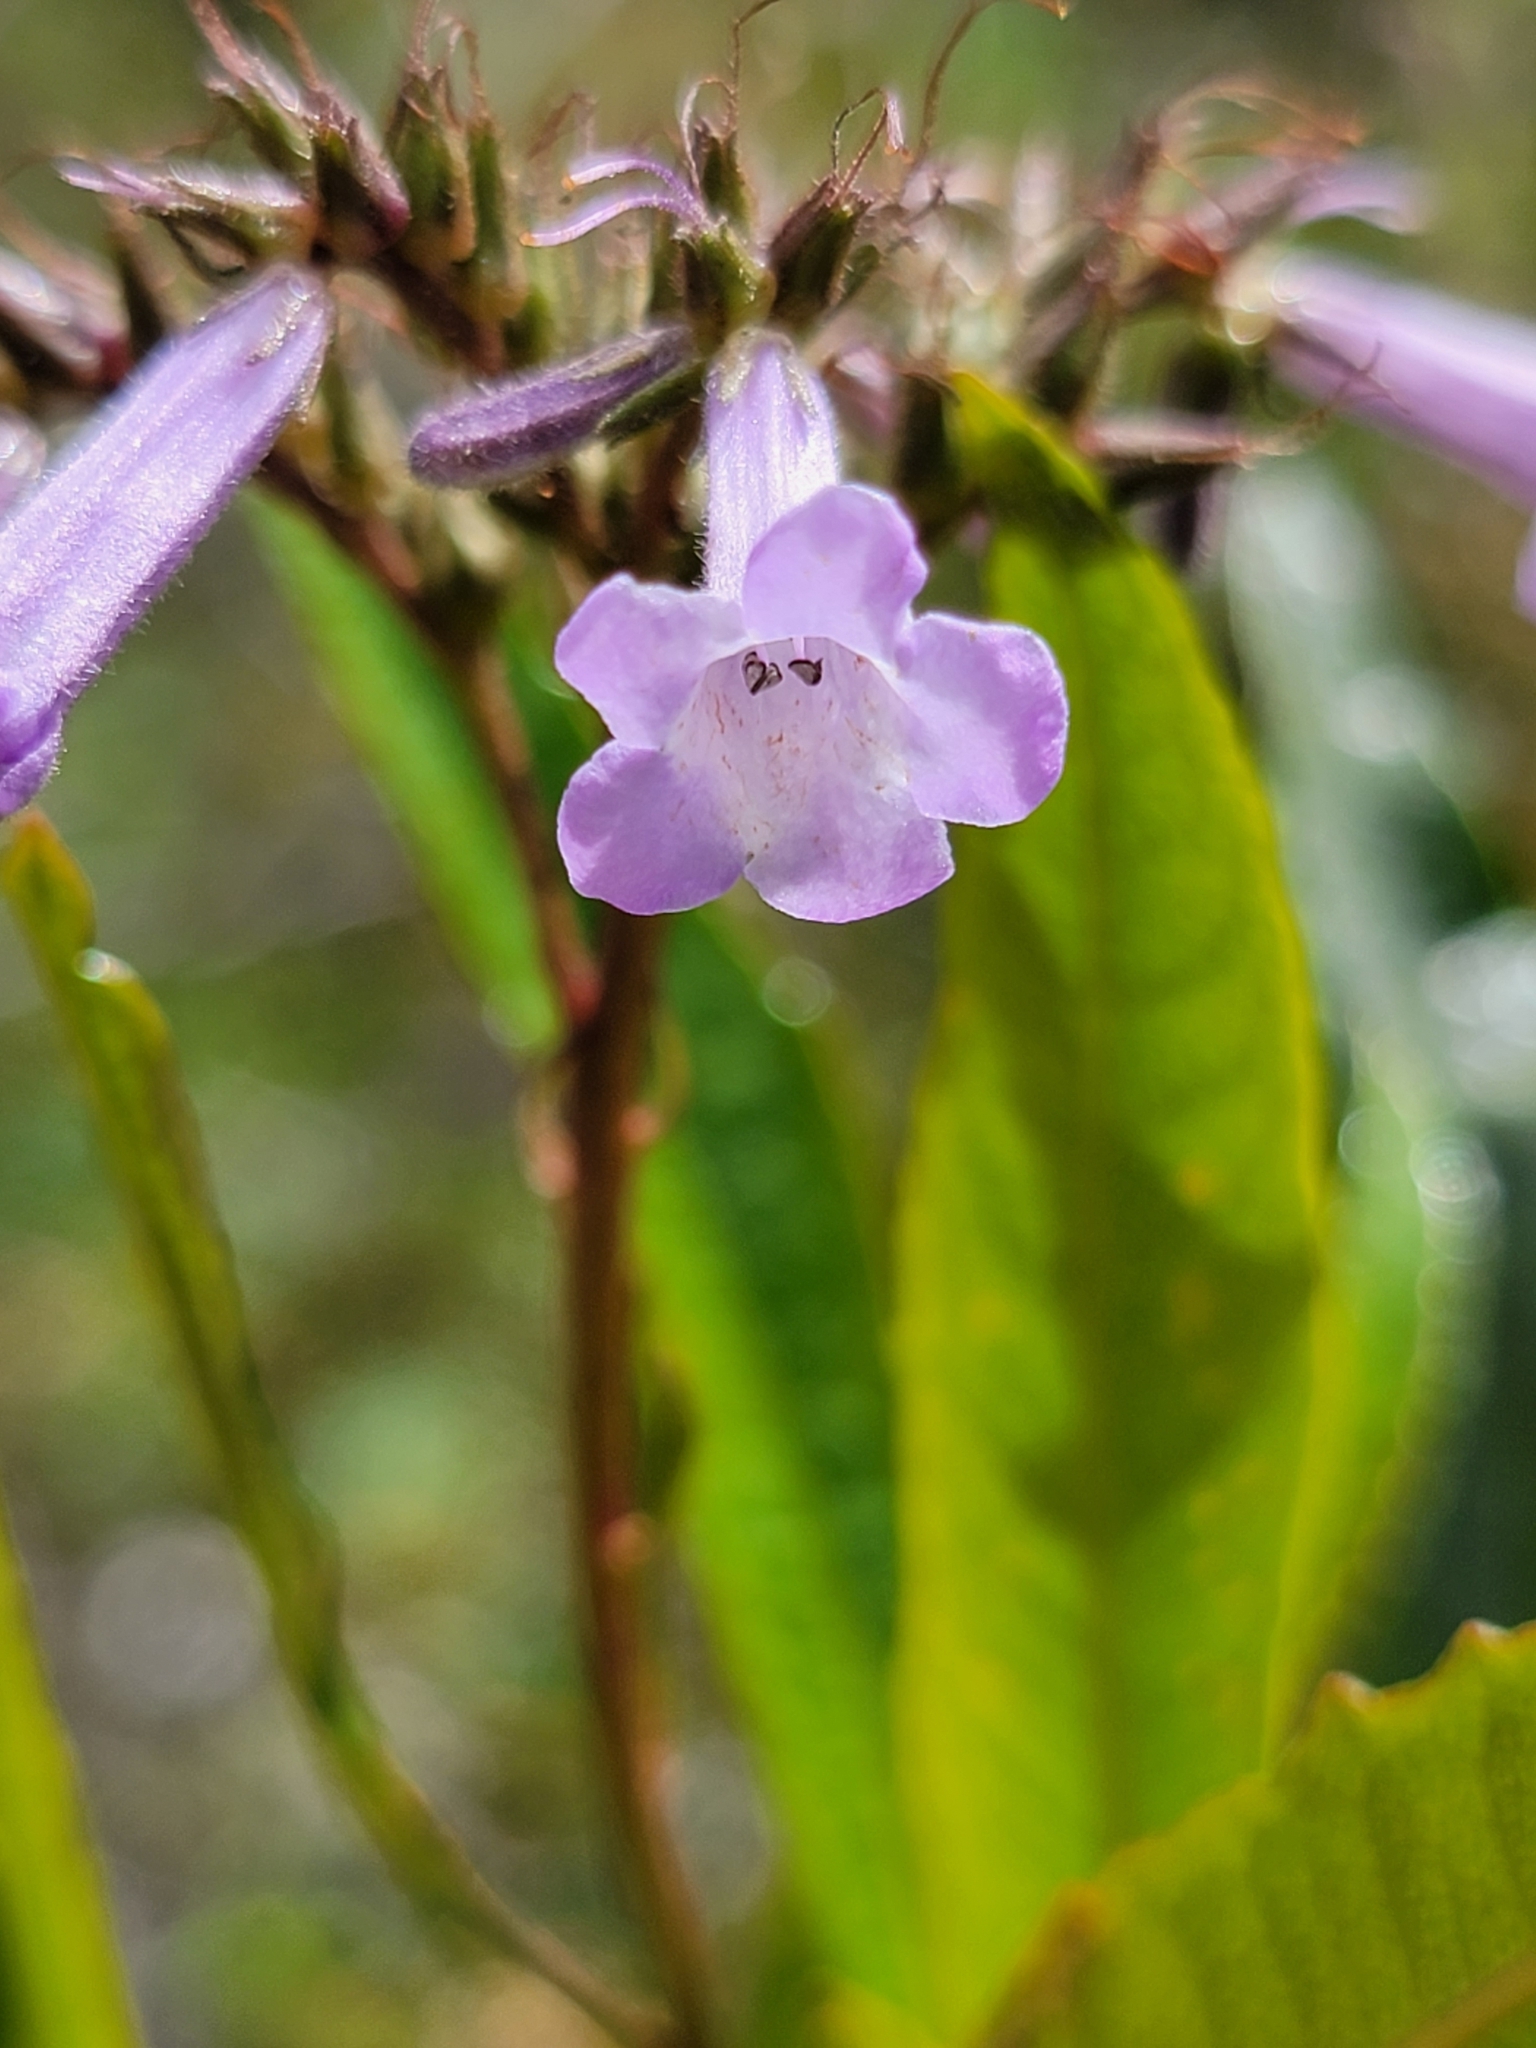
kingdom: Plantae
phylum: Tracheophyta
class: Magnoliopsida
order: Boraginales
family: Namaceae
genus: Eriodictyon
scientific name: Eriodictyon californicum
